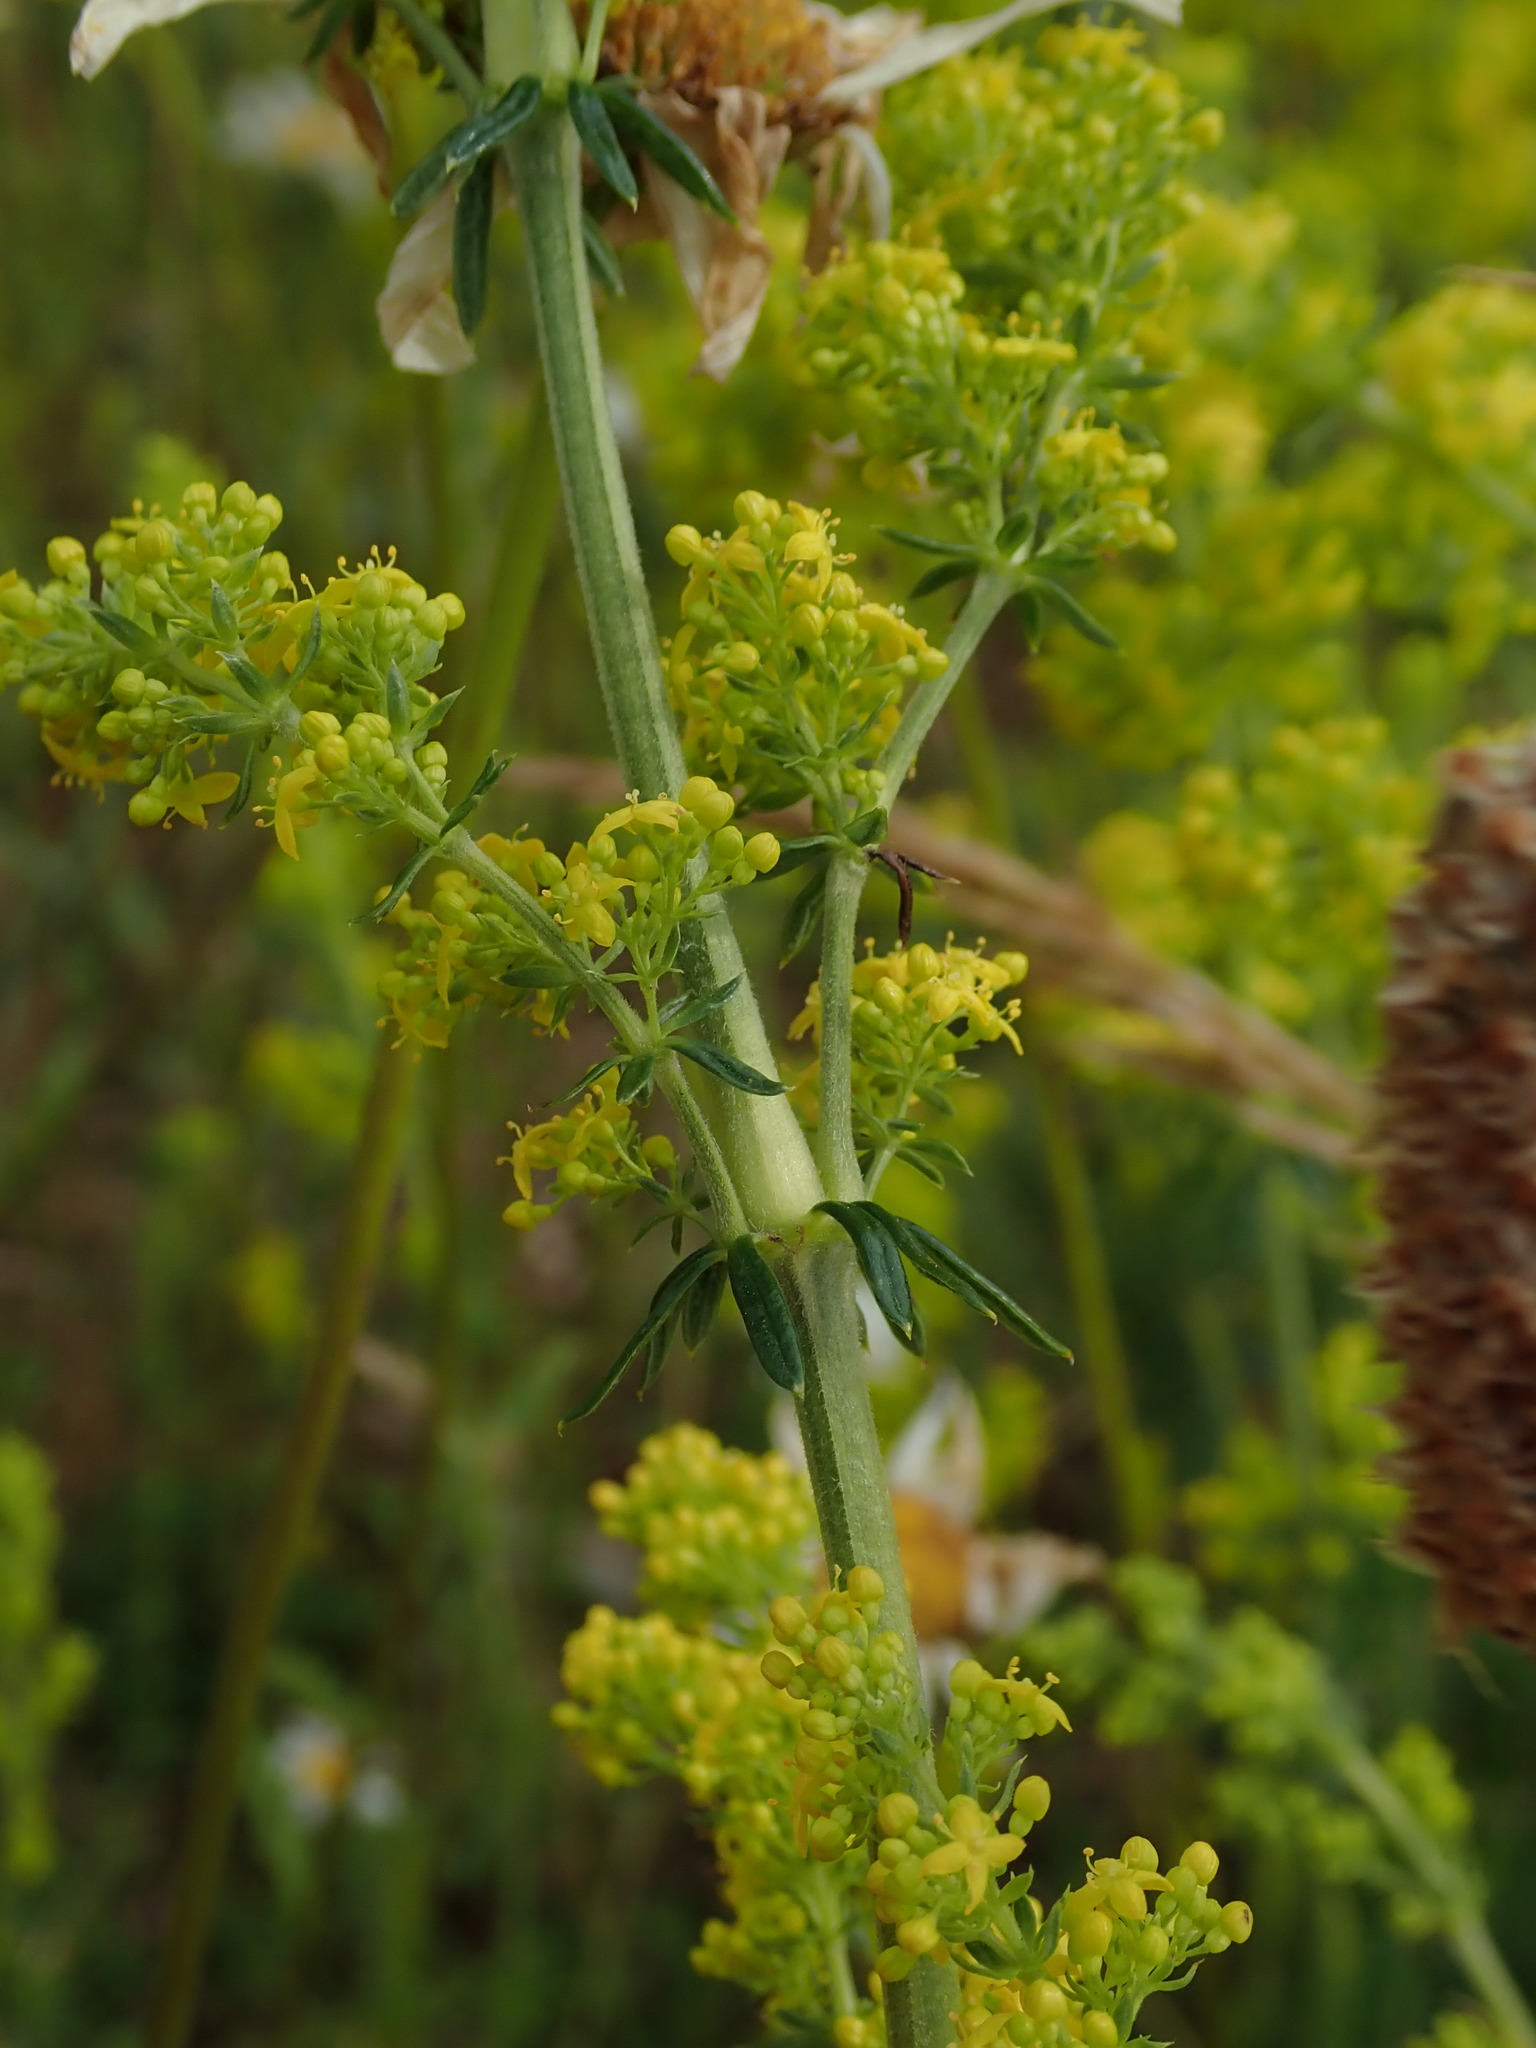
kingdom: Plantae
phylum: Tracheophyta
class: Magnoliopsida
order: Gentianales
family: Rubiaceae
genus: Galium
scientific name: Galium verum
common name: Lady's bedstraw
